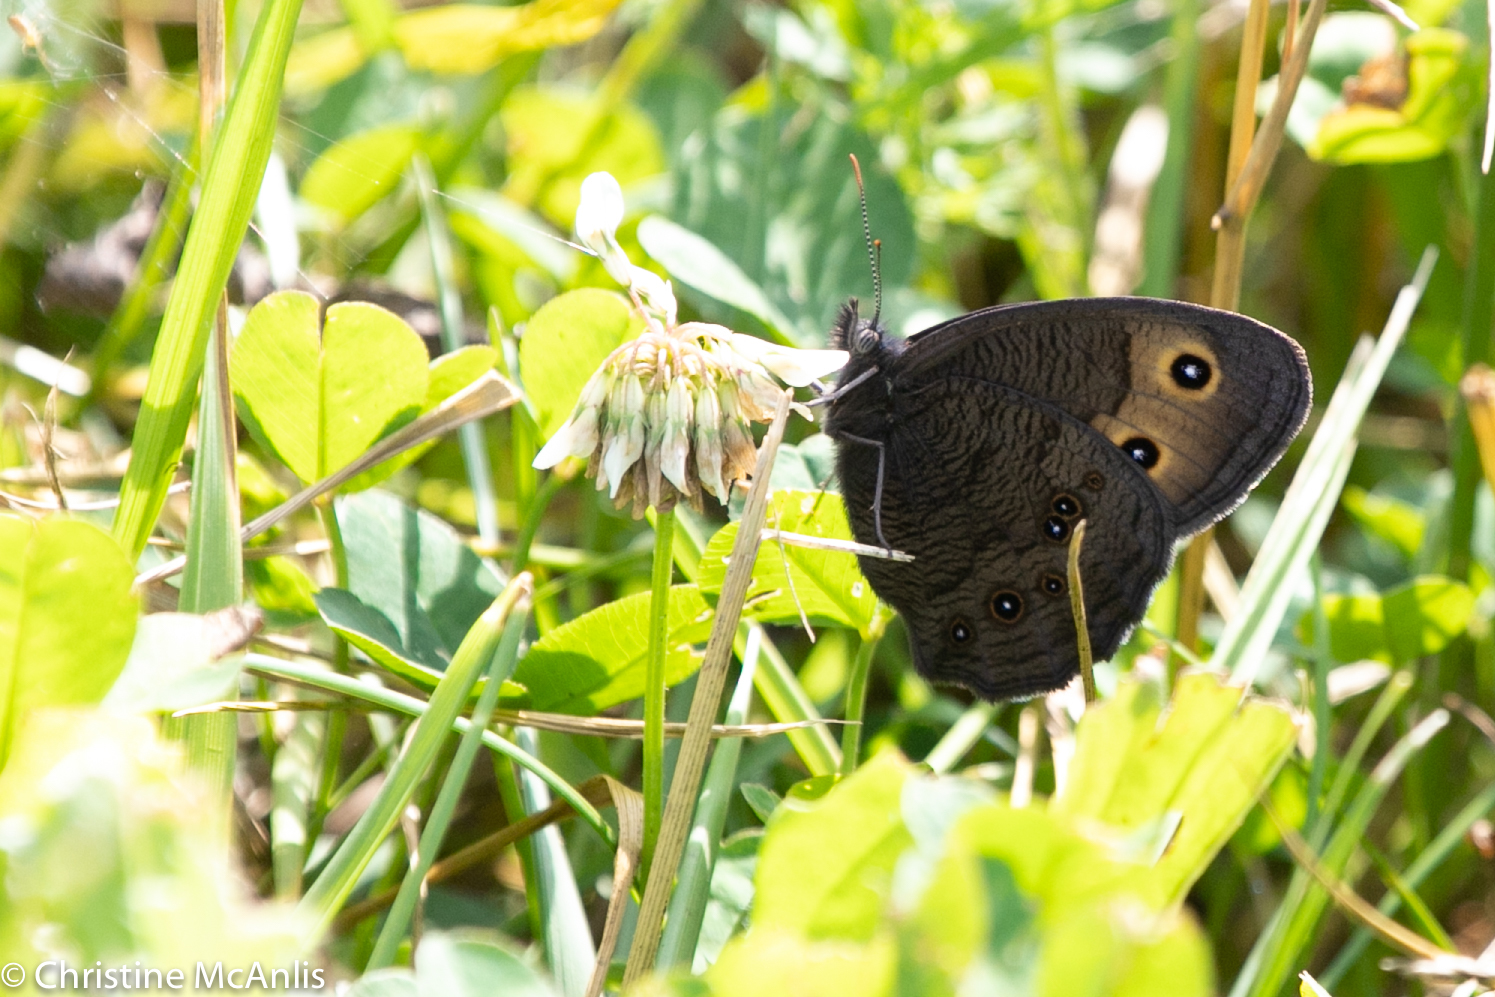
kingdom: Animalia
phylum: Arthropoda
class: Insecta
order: Lepidoptera
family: Nymphalidae
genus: Cercyonis
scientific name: Cercyonis pegala
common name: Common wood-nymph
